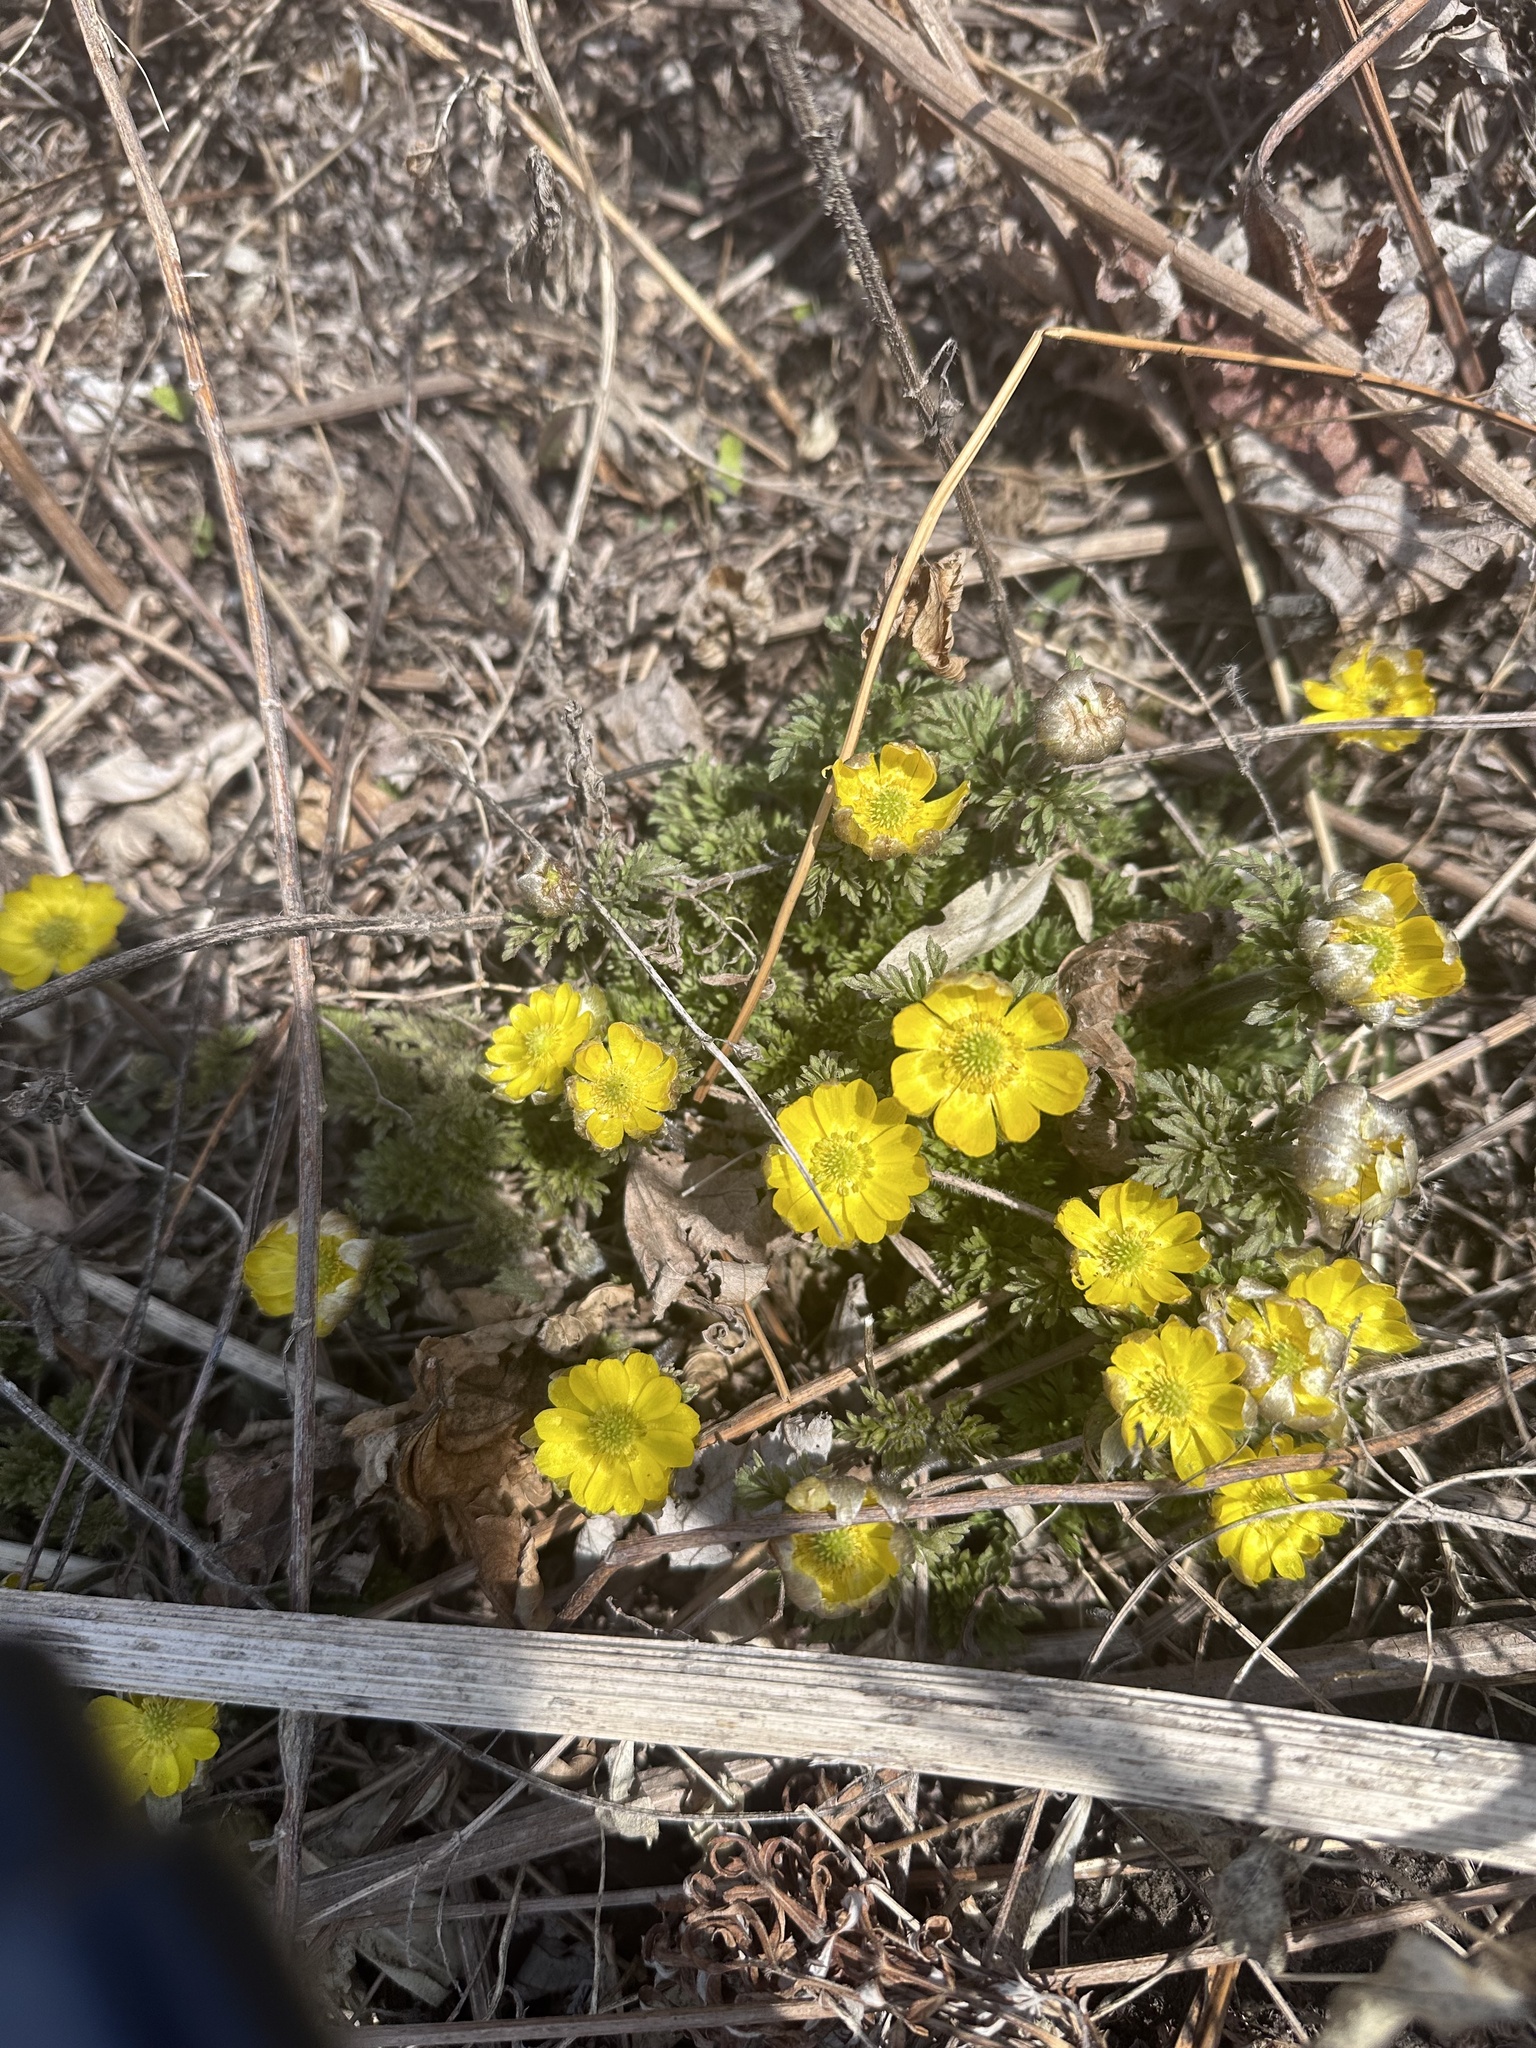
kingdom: Plantae
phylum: Tracheophyta
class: Magnoliopsida
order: Ranunculales
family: Ranunculaceae
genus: Adonis
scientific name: Adonis amurensis
